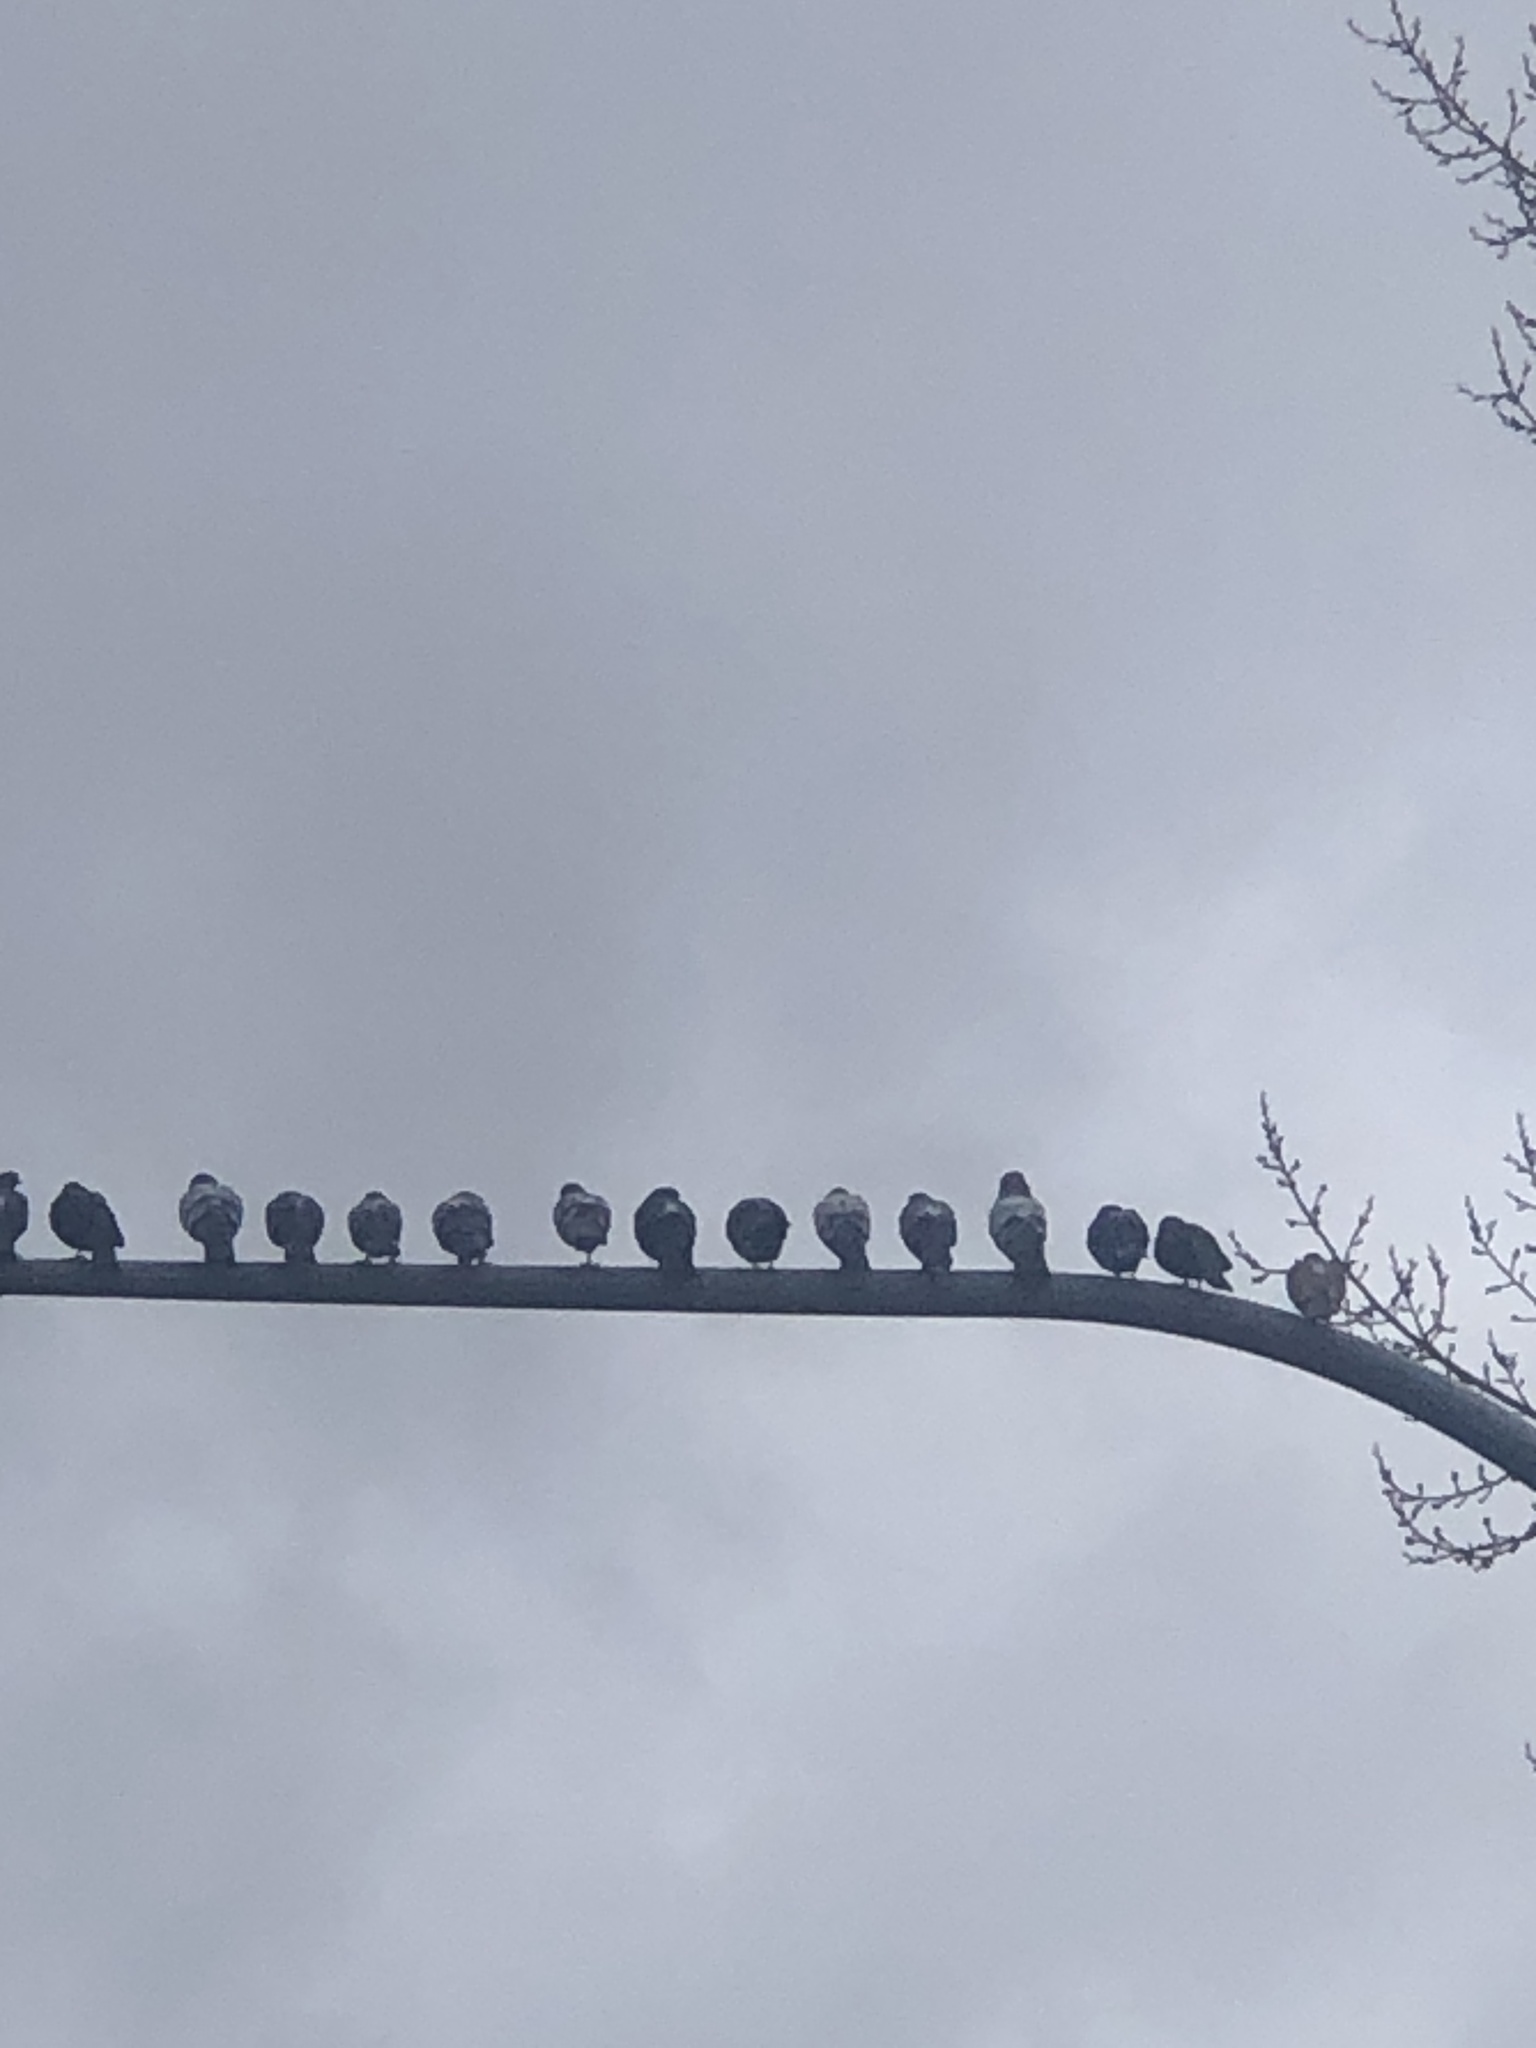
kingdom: Animalia
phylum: Chordata
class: Aves
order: Columbiformes
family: Columbidae
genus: Columba
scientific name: Columba livia
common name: Rock pigeon
